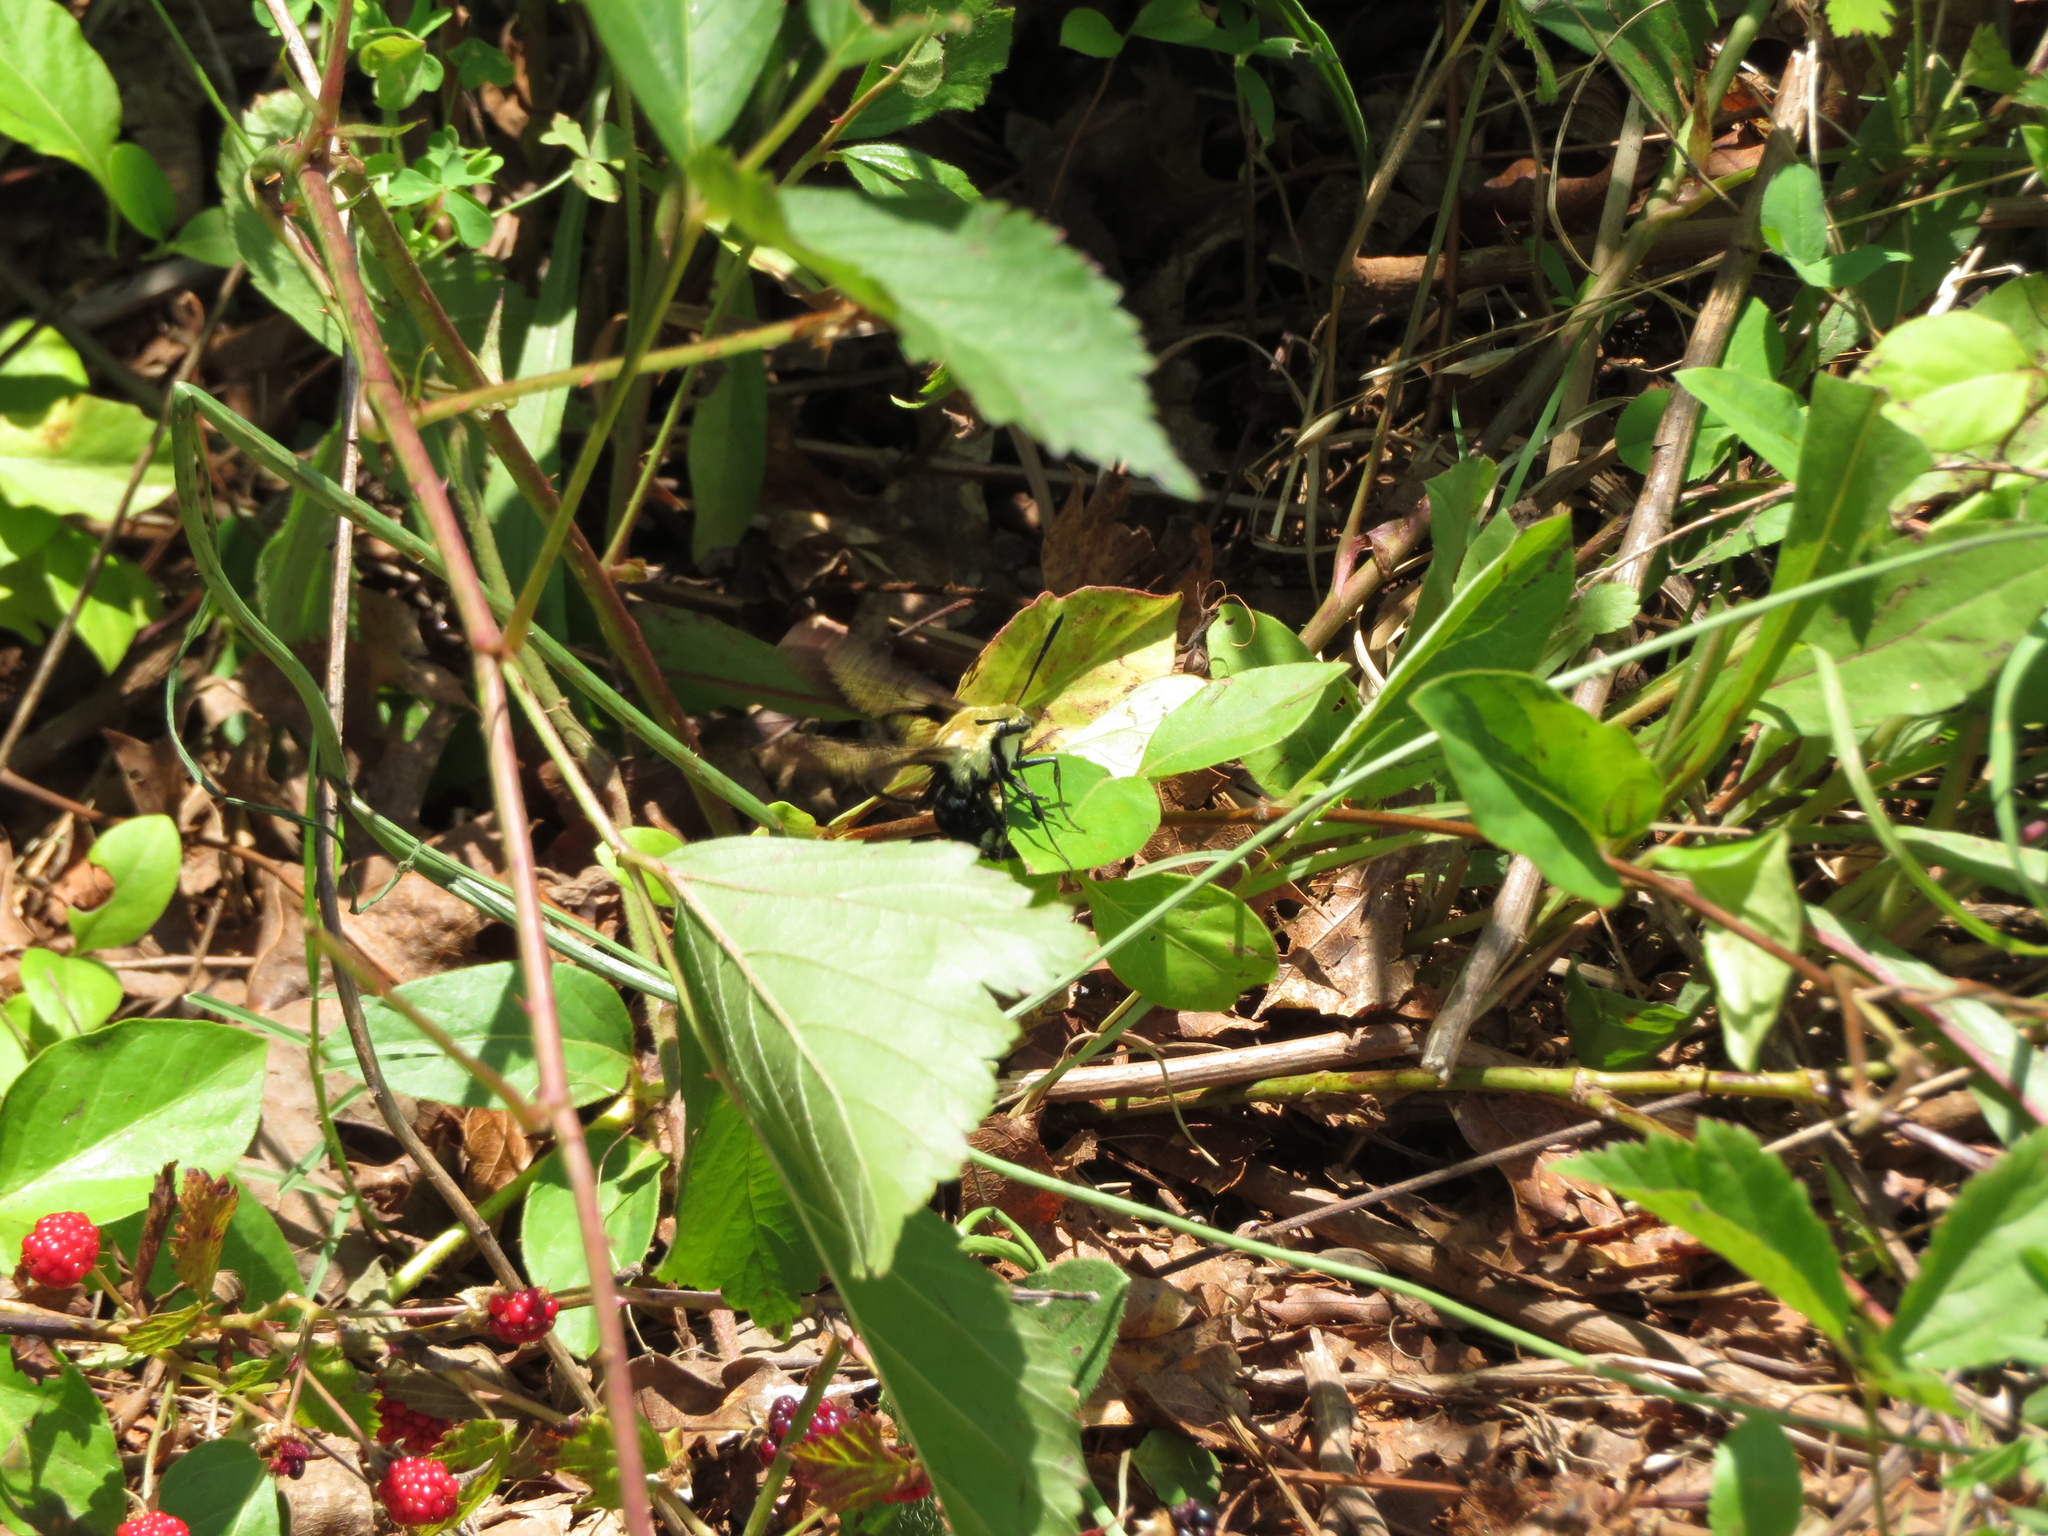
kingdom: Animalia
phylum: Arthropoda
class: Insecta
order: Lepidoptera
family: Sphingidae
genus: Hemaris
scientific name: Hemaris diffinis
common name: Bumblebee moth
